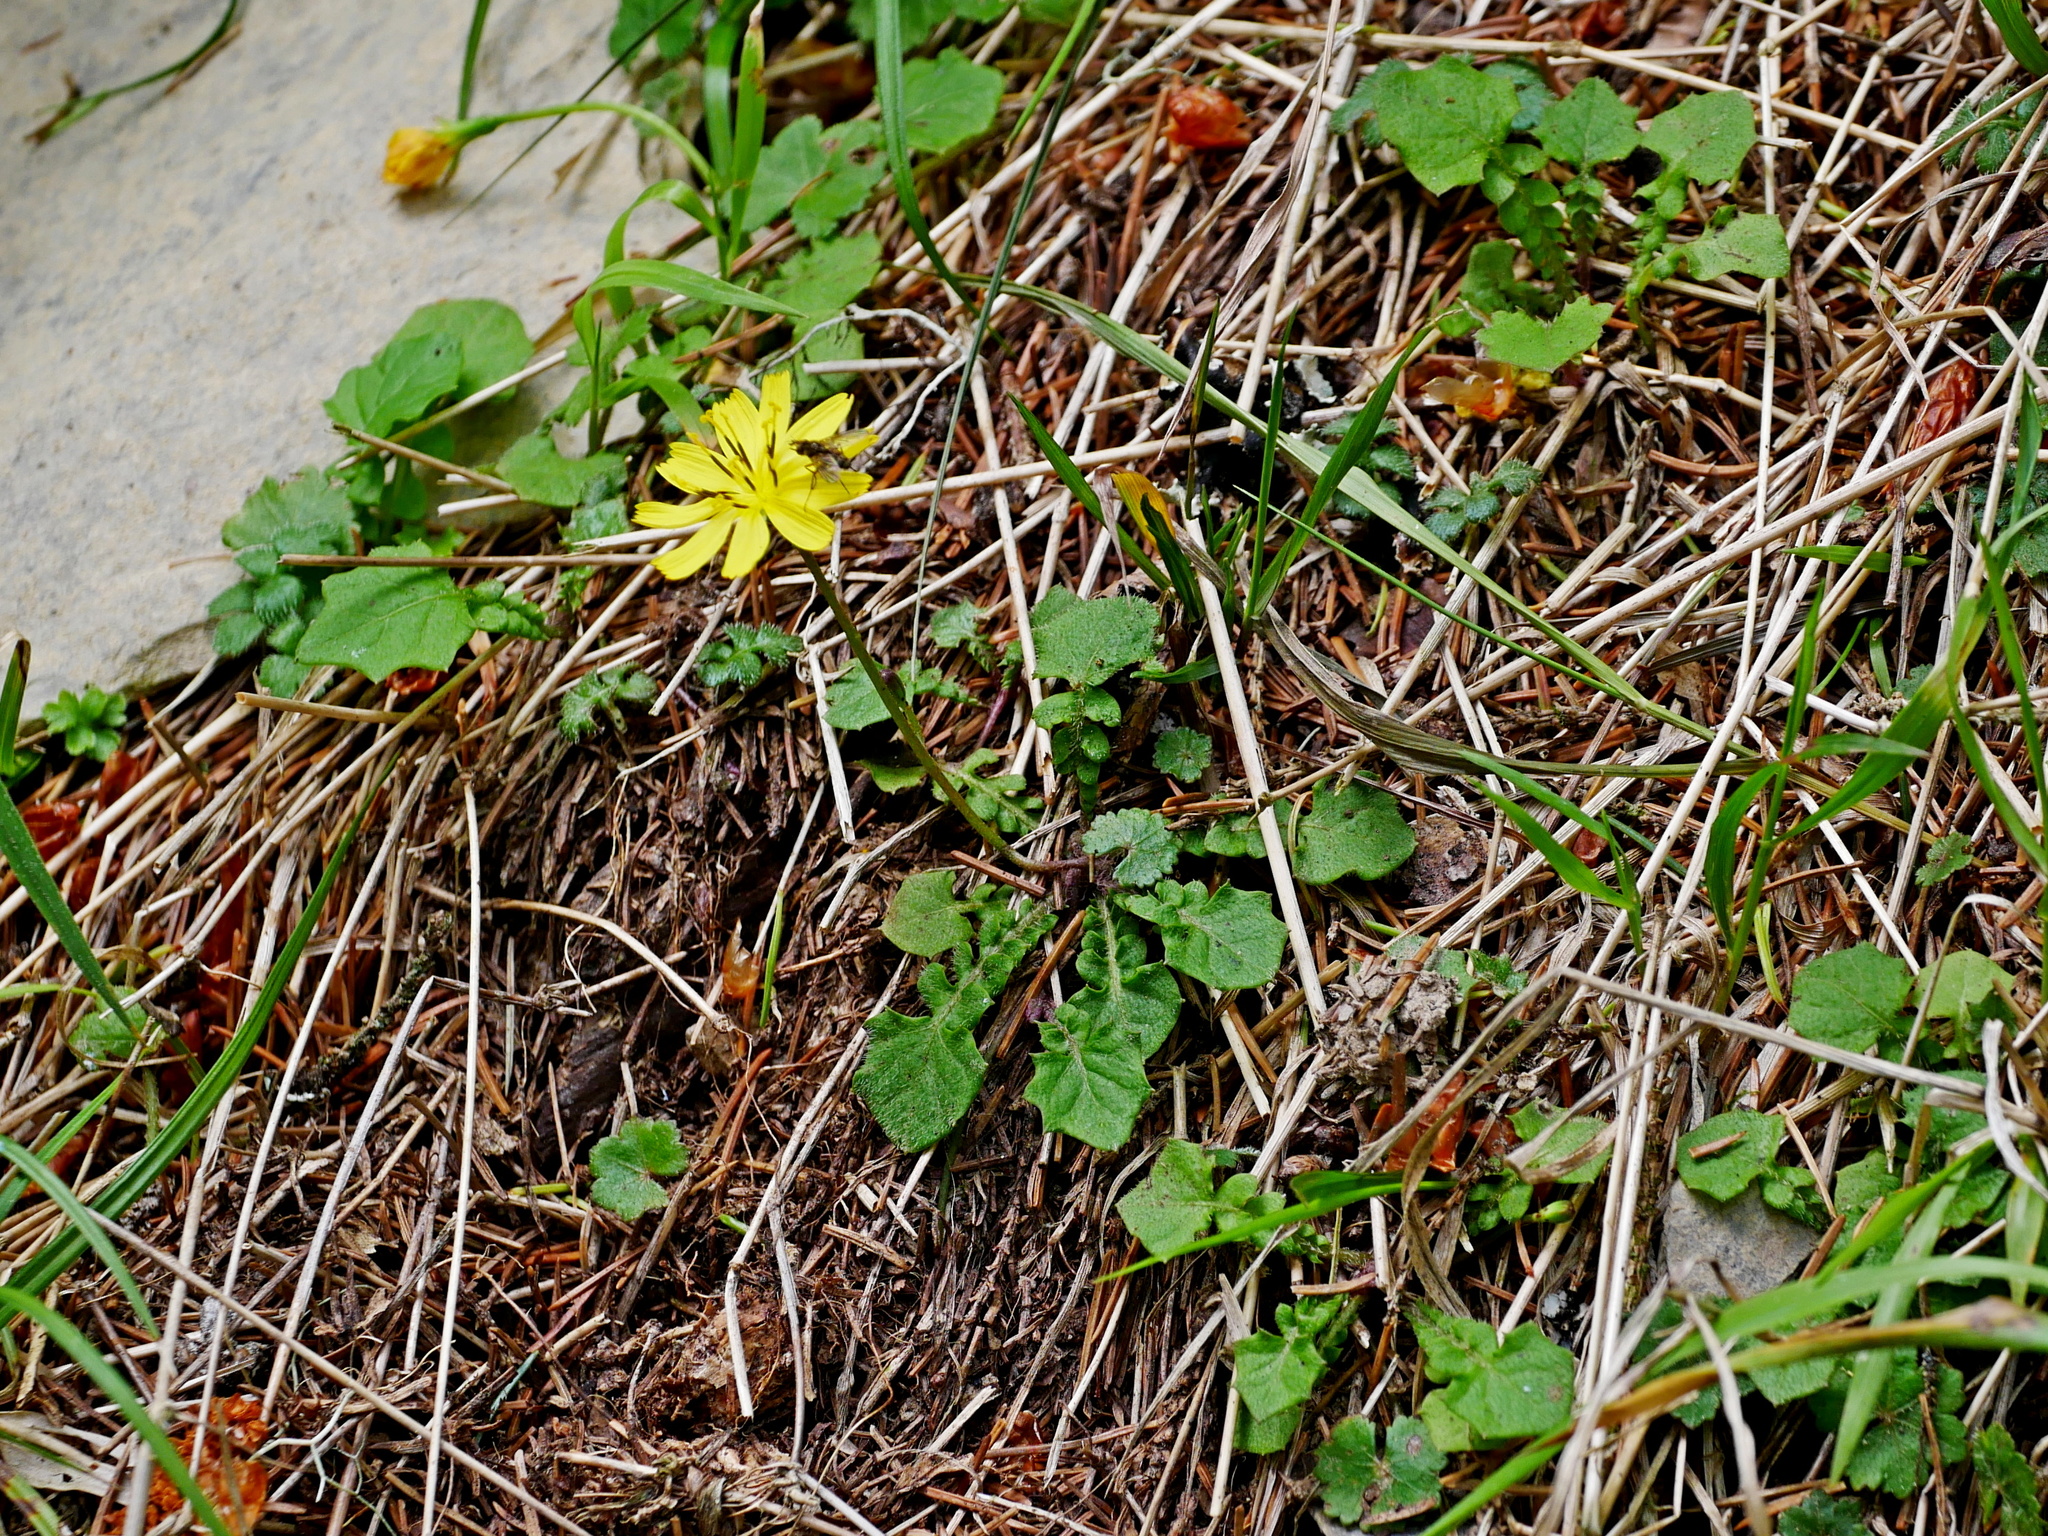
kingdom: Plantae
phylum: Tracheophyta
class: Magnoliopsida
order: Asterales
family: Asteraceae
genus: Lapsanastrum
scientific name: Lapsanastrum takasei
